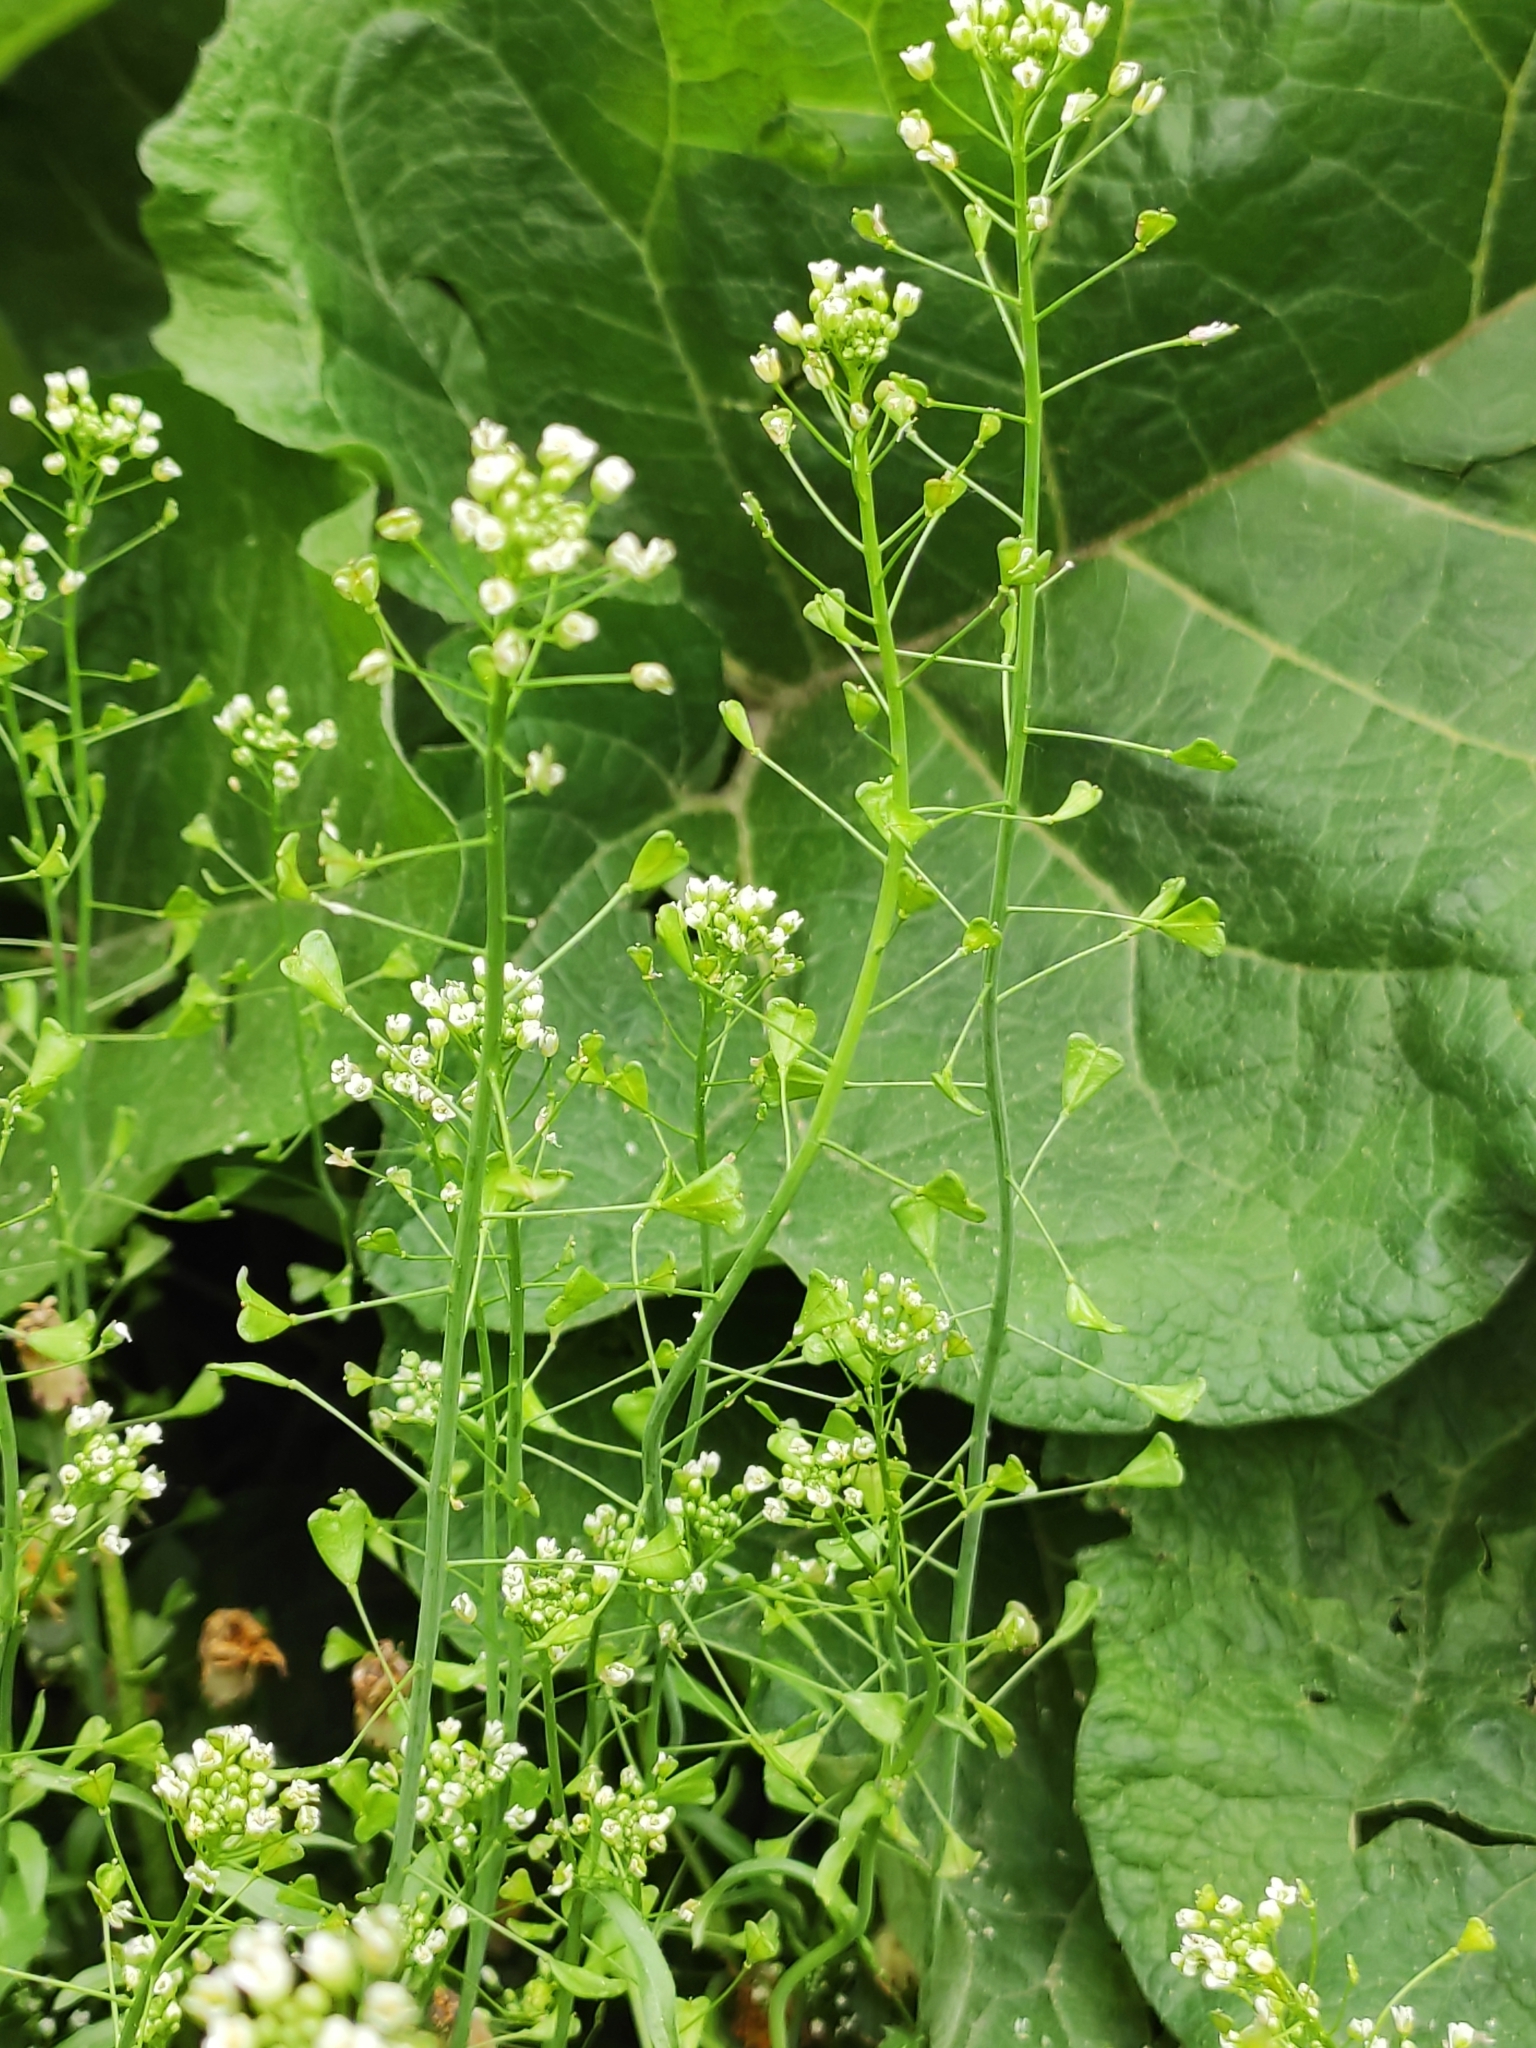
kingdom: Plantae
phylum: Tracheophyta
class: Magnoliopsida
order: Brassicales
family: Brassicaceae
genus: Capsella
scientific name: Capsella bursa-pastoris
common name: Shepherd's purse
